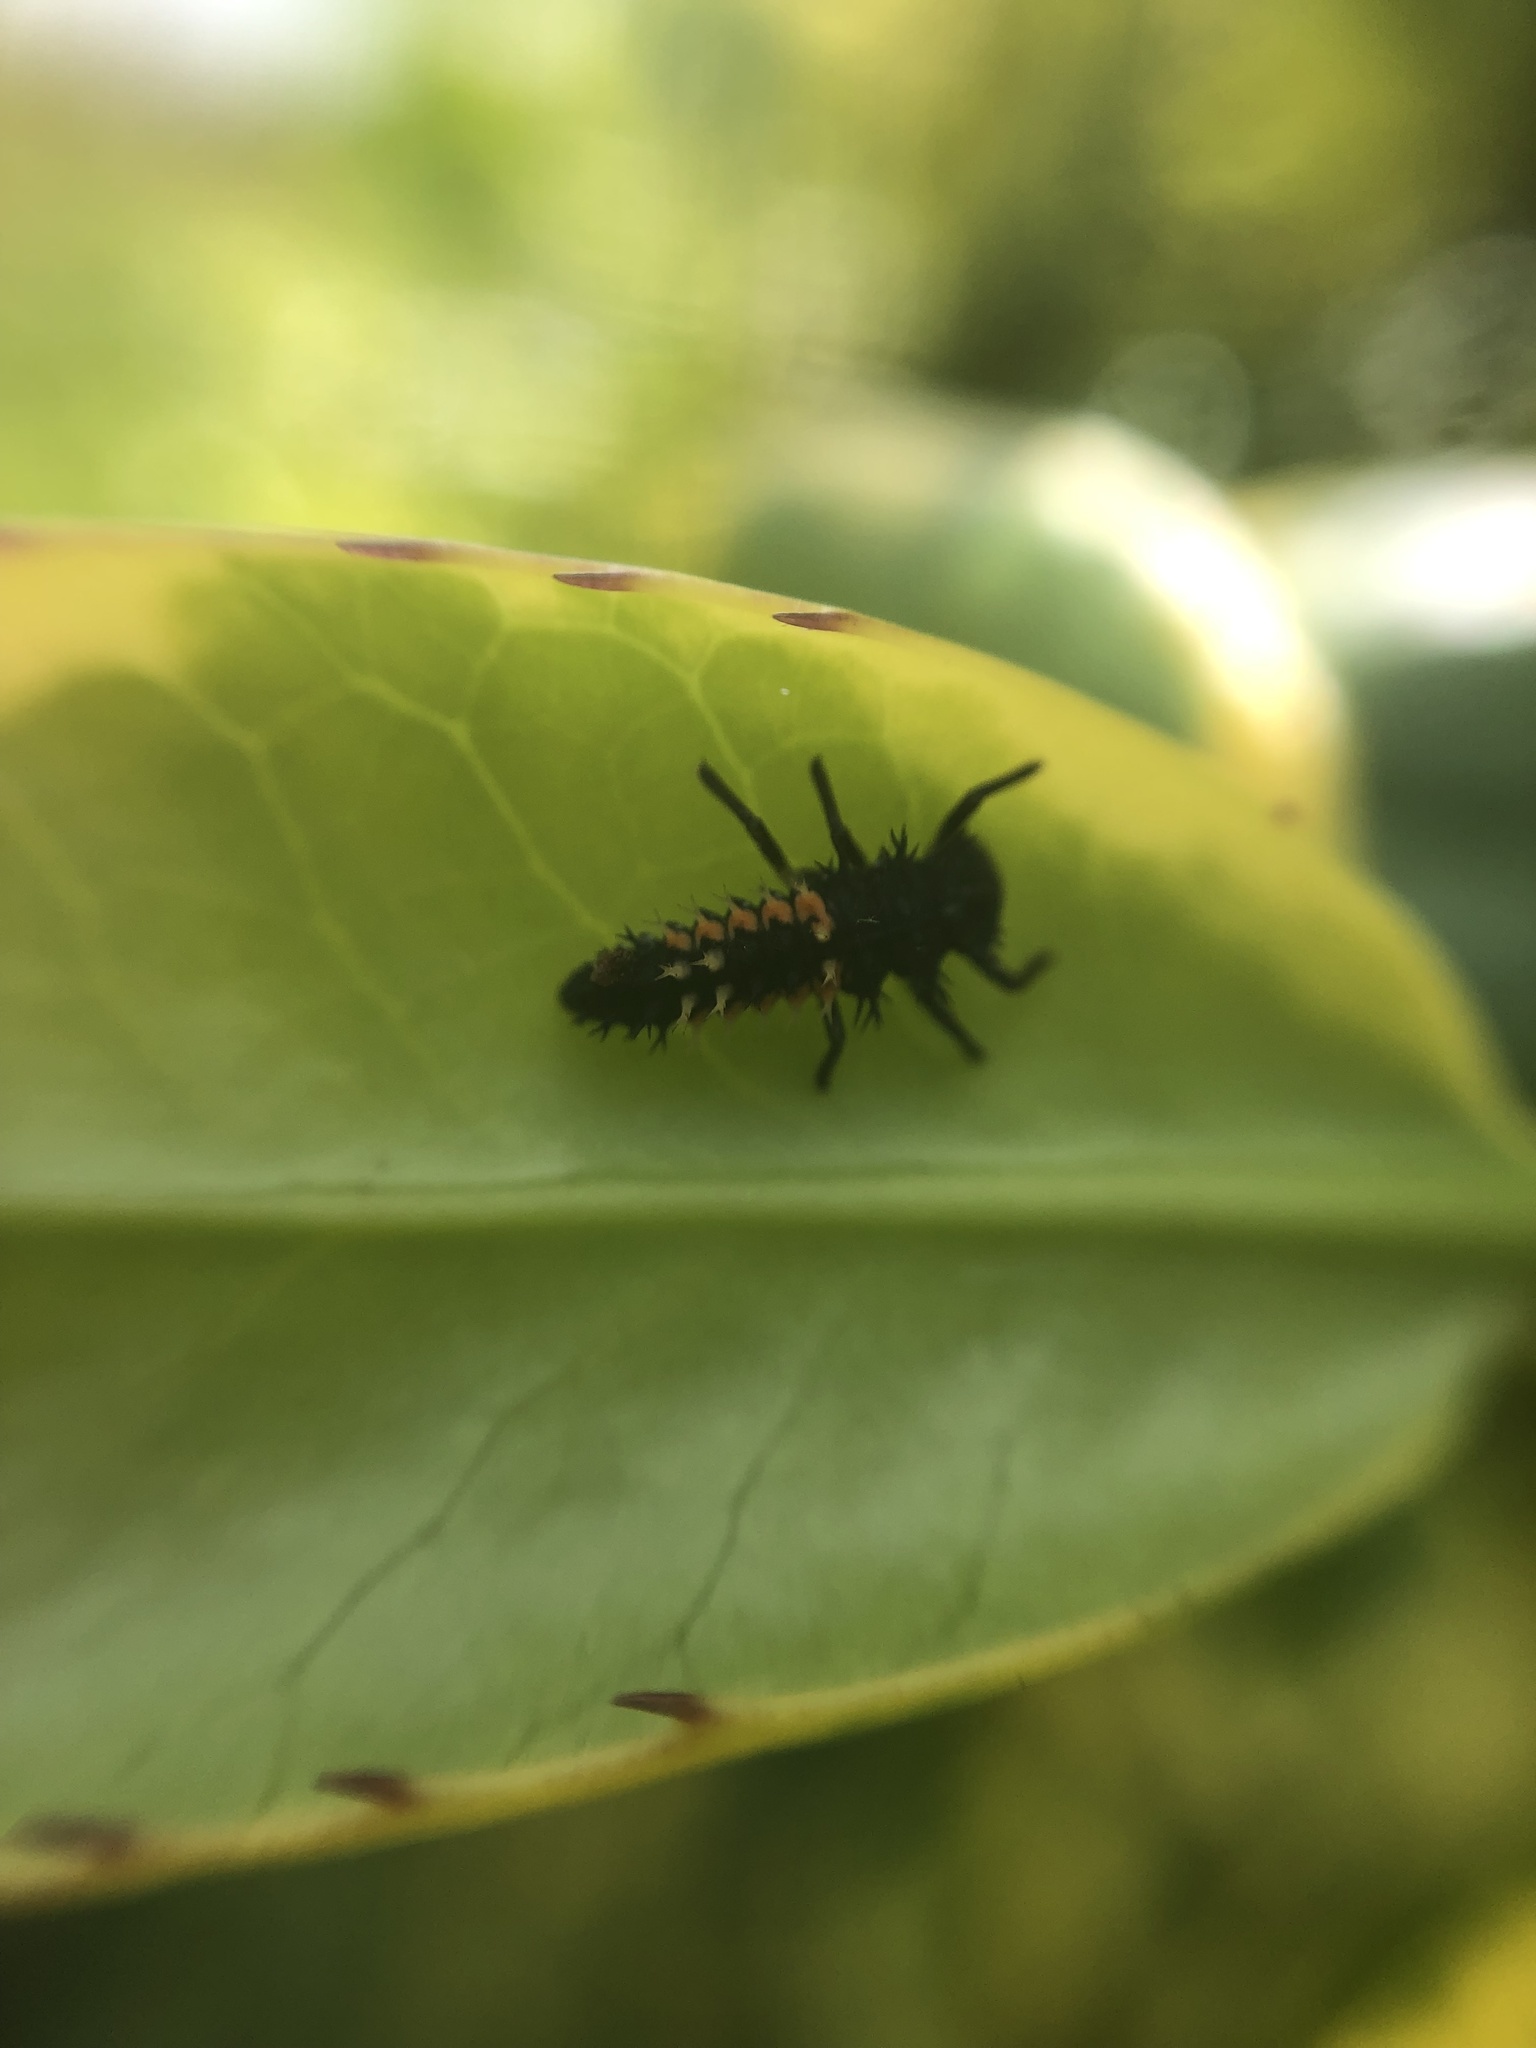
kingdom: Animalia
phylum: Arthropoda
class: Insecta
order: Coleoptera
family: Coccinellidae
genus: Harmonia
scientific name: Harmonia axyridis
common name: Harlequin ladybird
